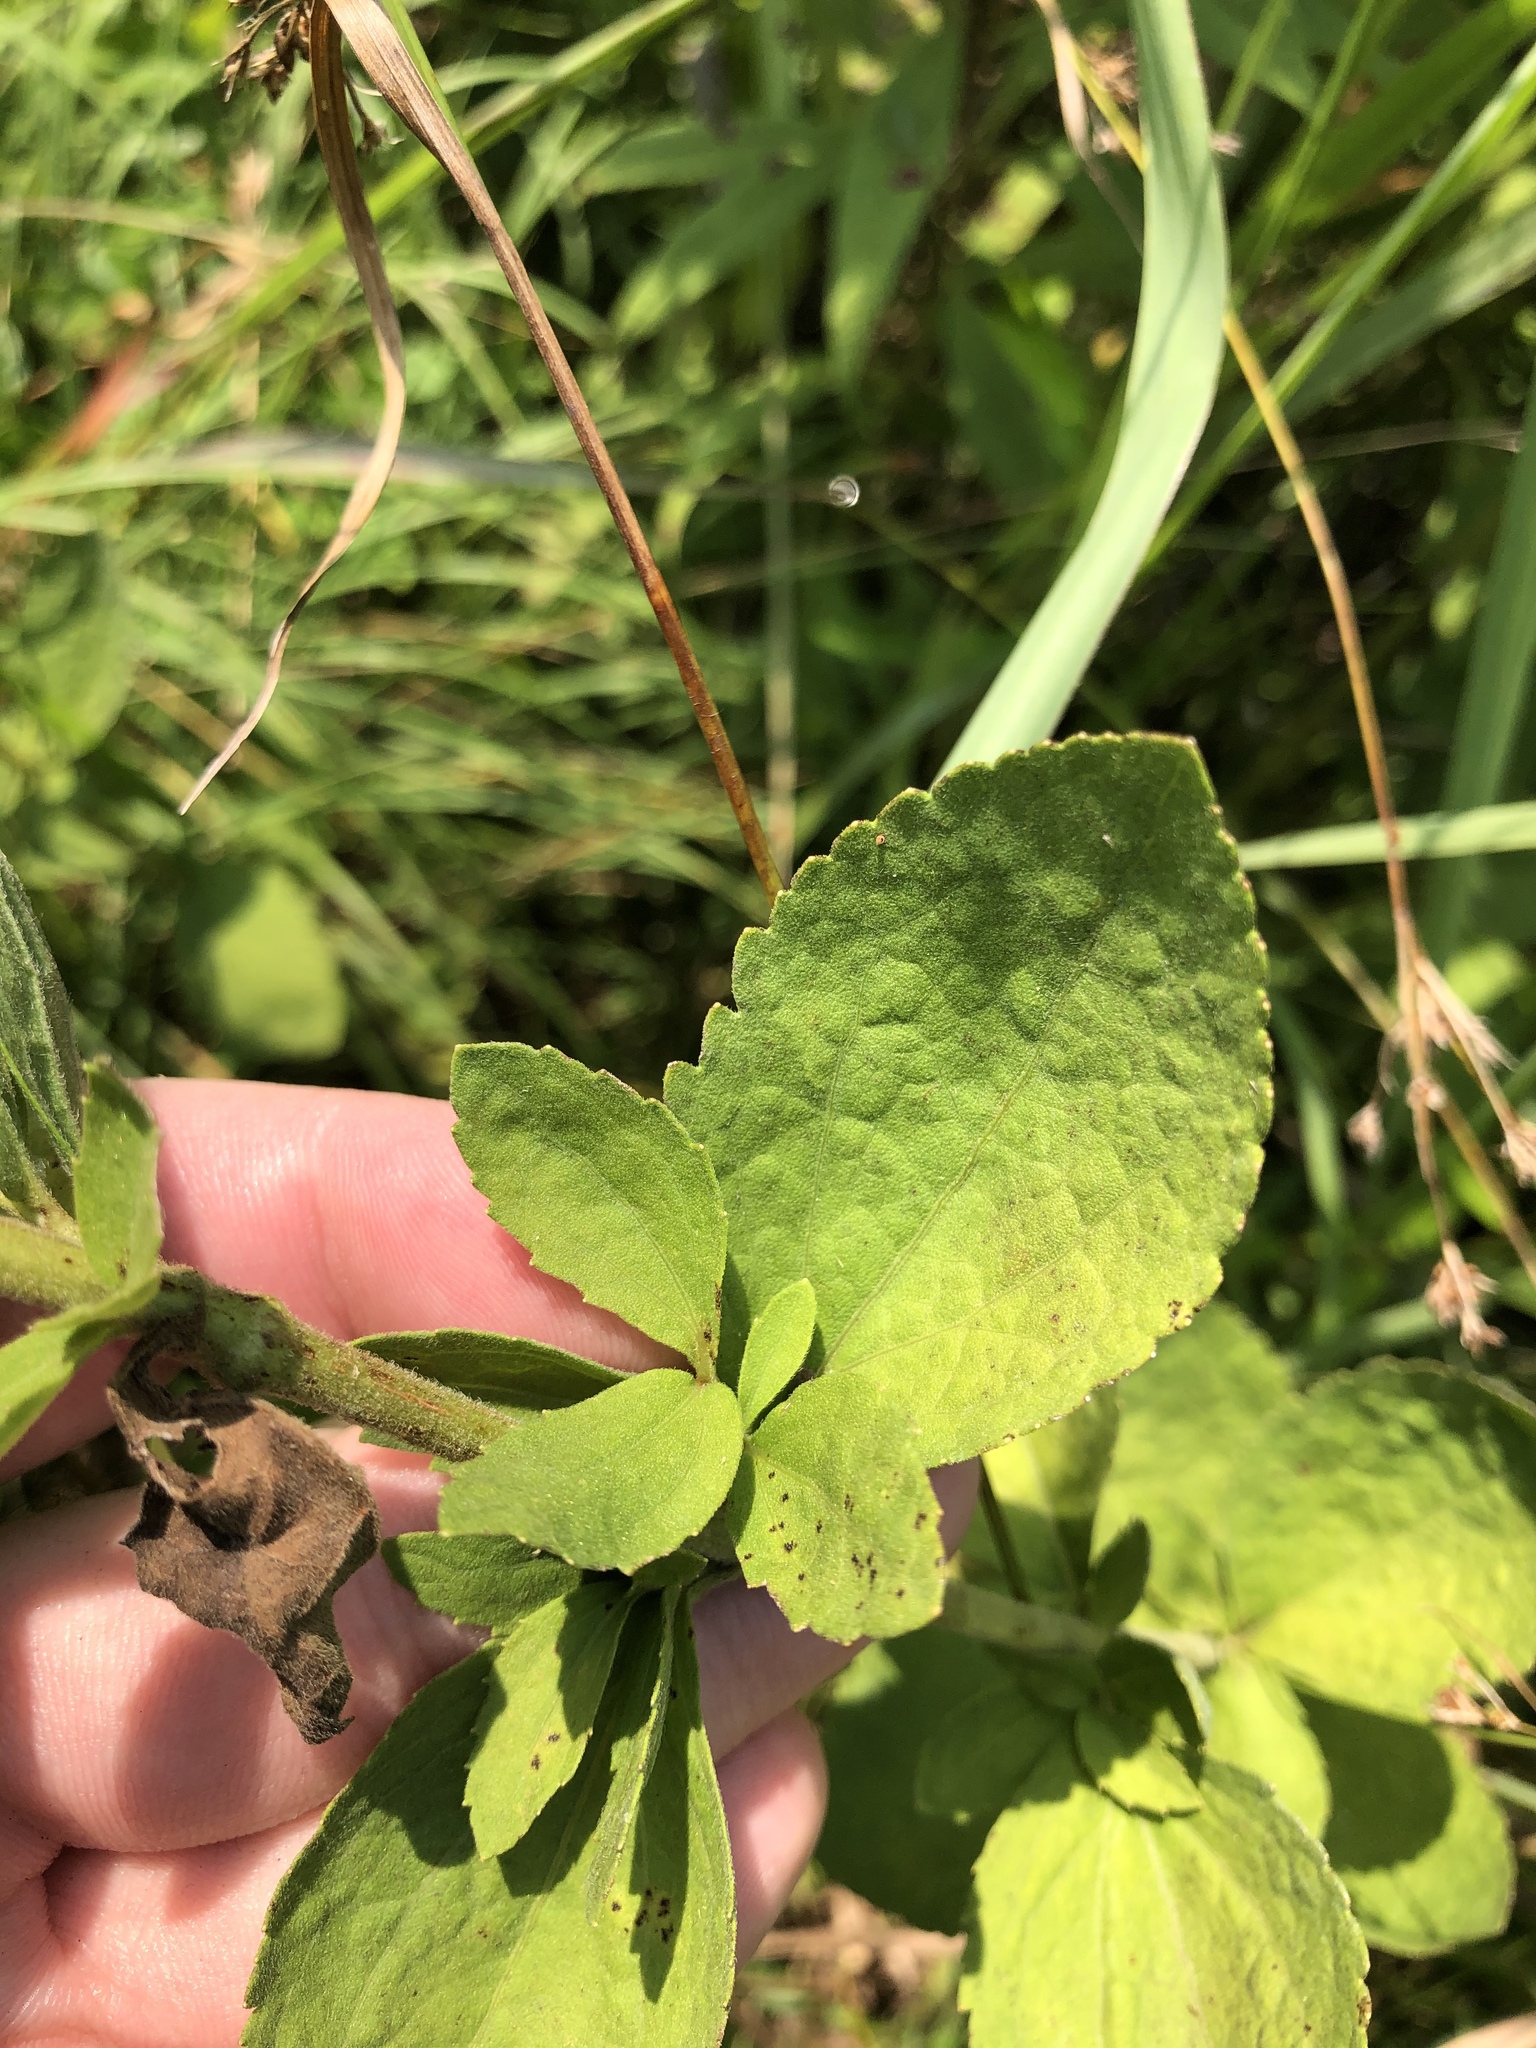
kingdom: Plantae
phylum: Tracheophyta
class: Magnoliopsida
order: Asterales
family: Asteraceae
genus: Eupatorium
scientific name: Eupatorium rotundifolium
